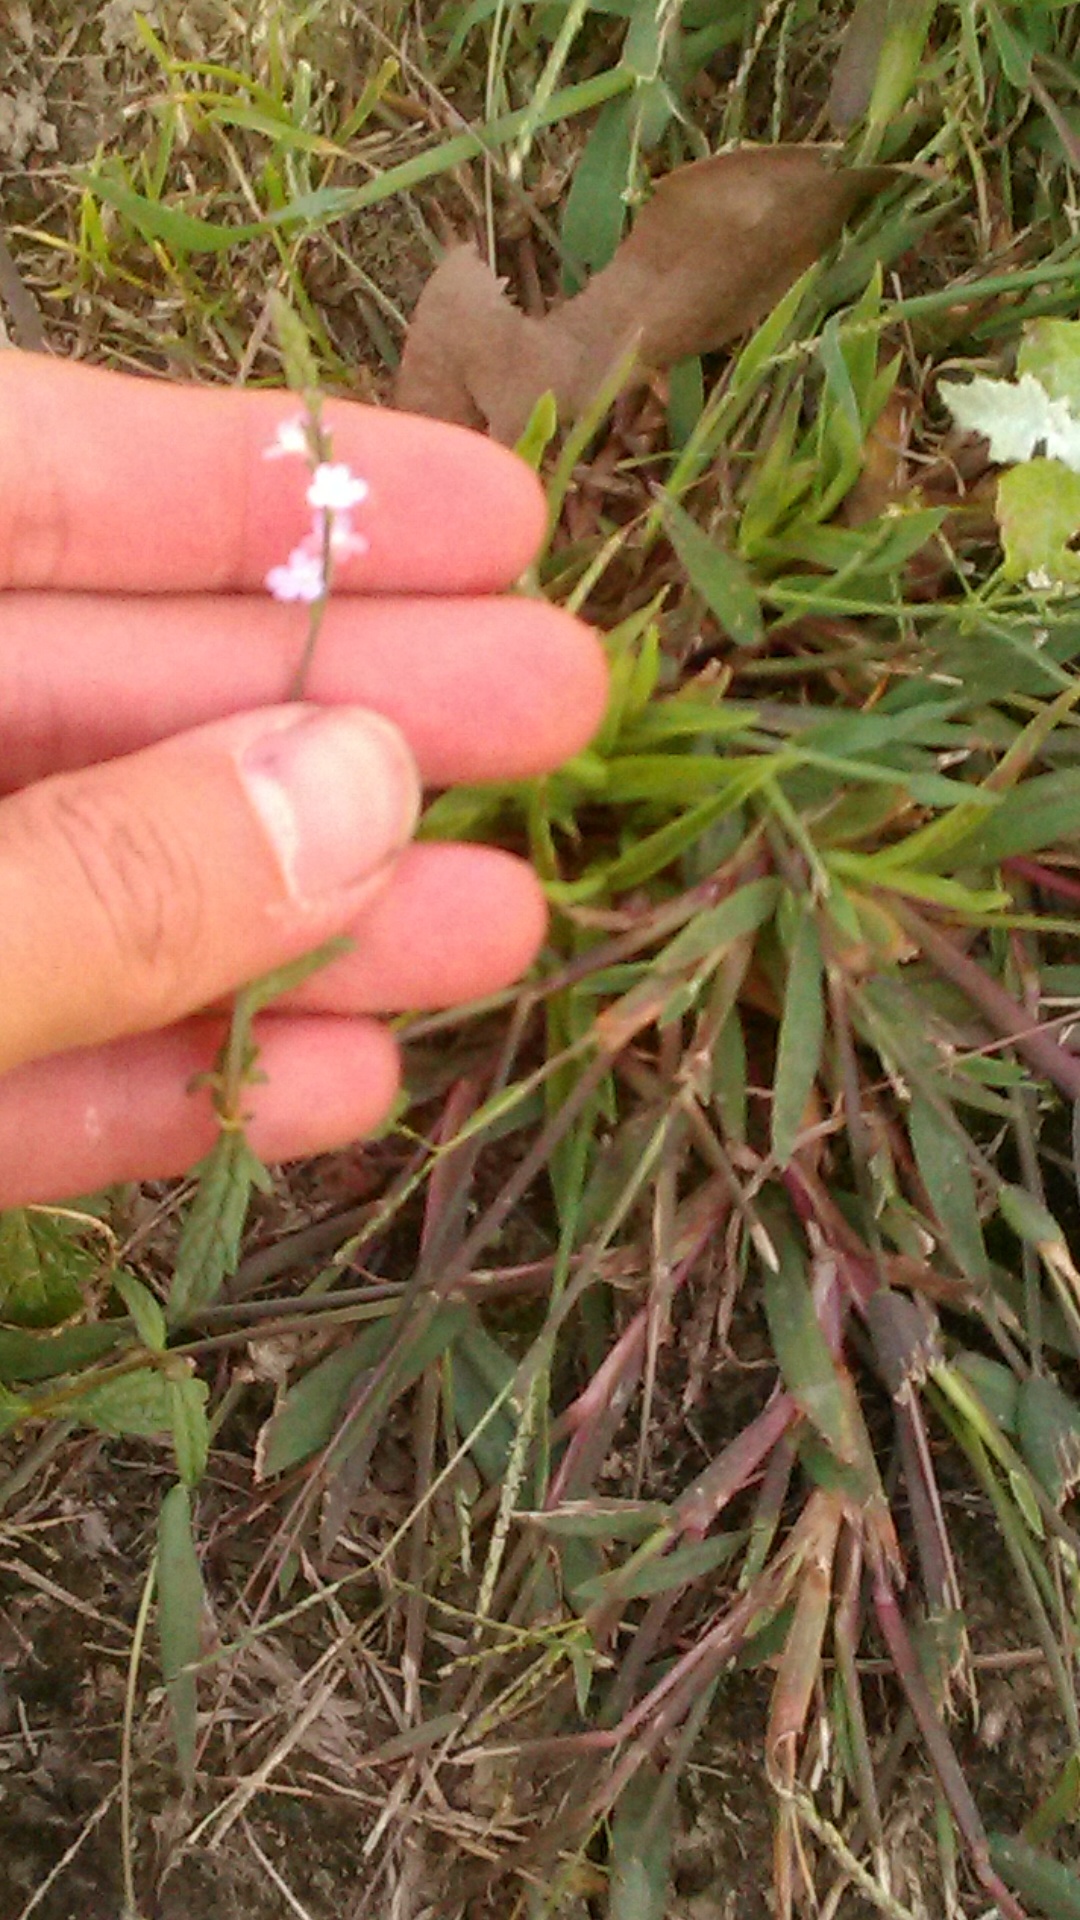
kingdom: Plantae
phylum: Tracheophyta
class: Magnoliopsida
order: Lamiales
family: Verbenaceae
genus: Verbena
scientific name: Verbena officinalis
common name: Vervain
